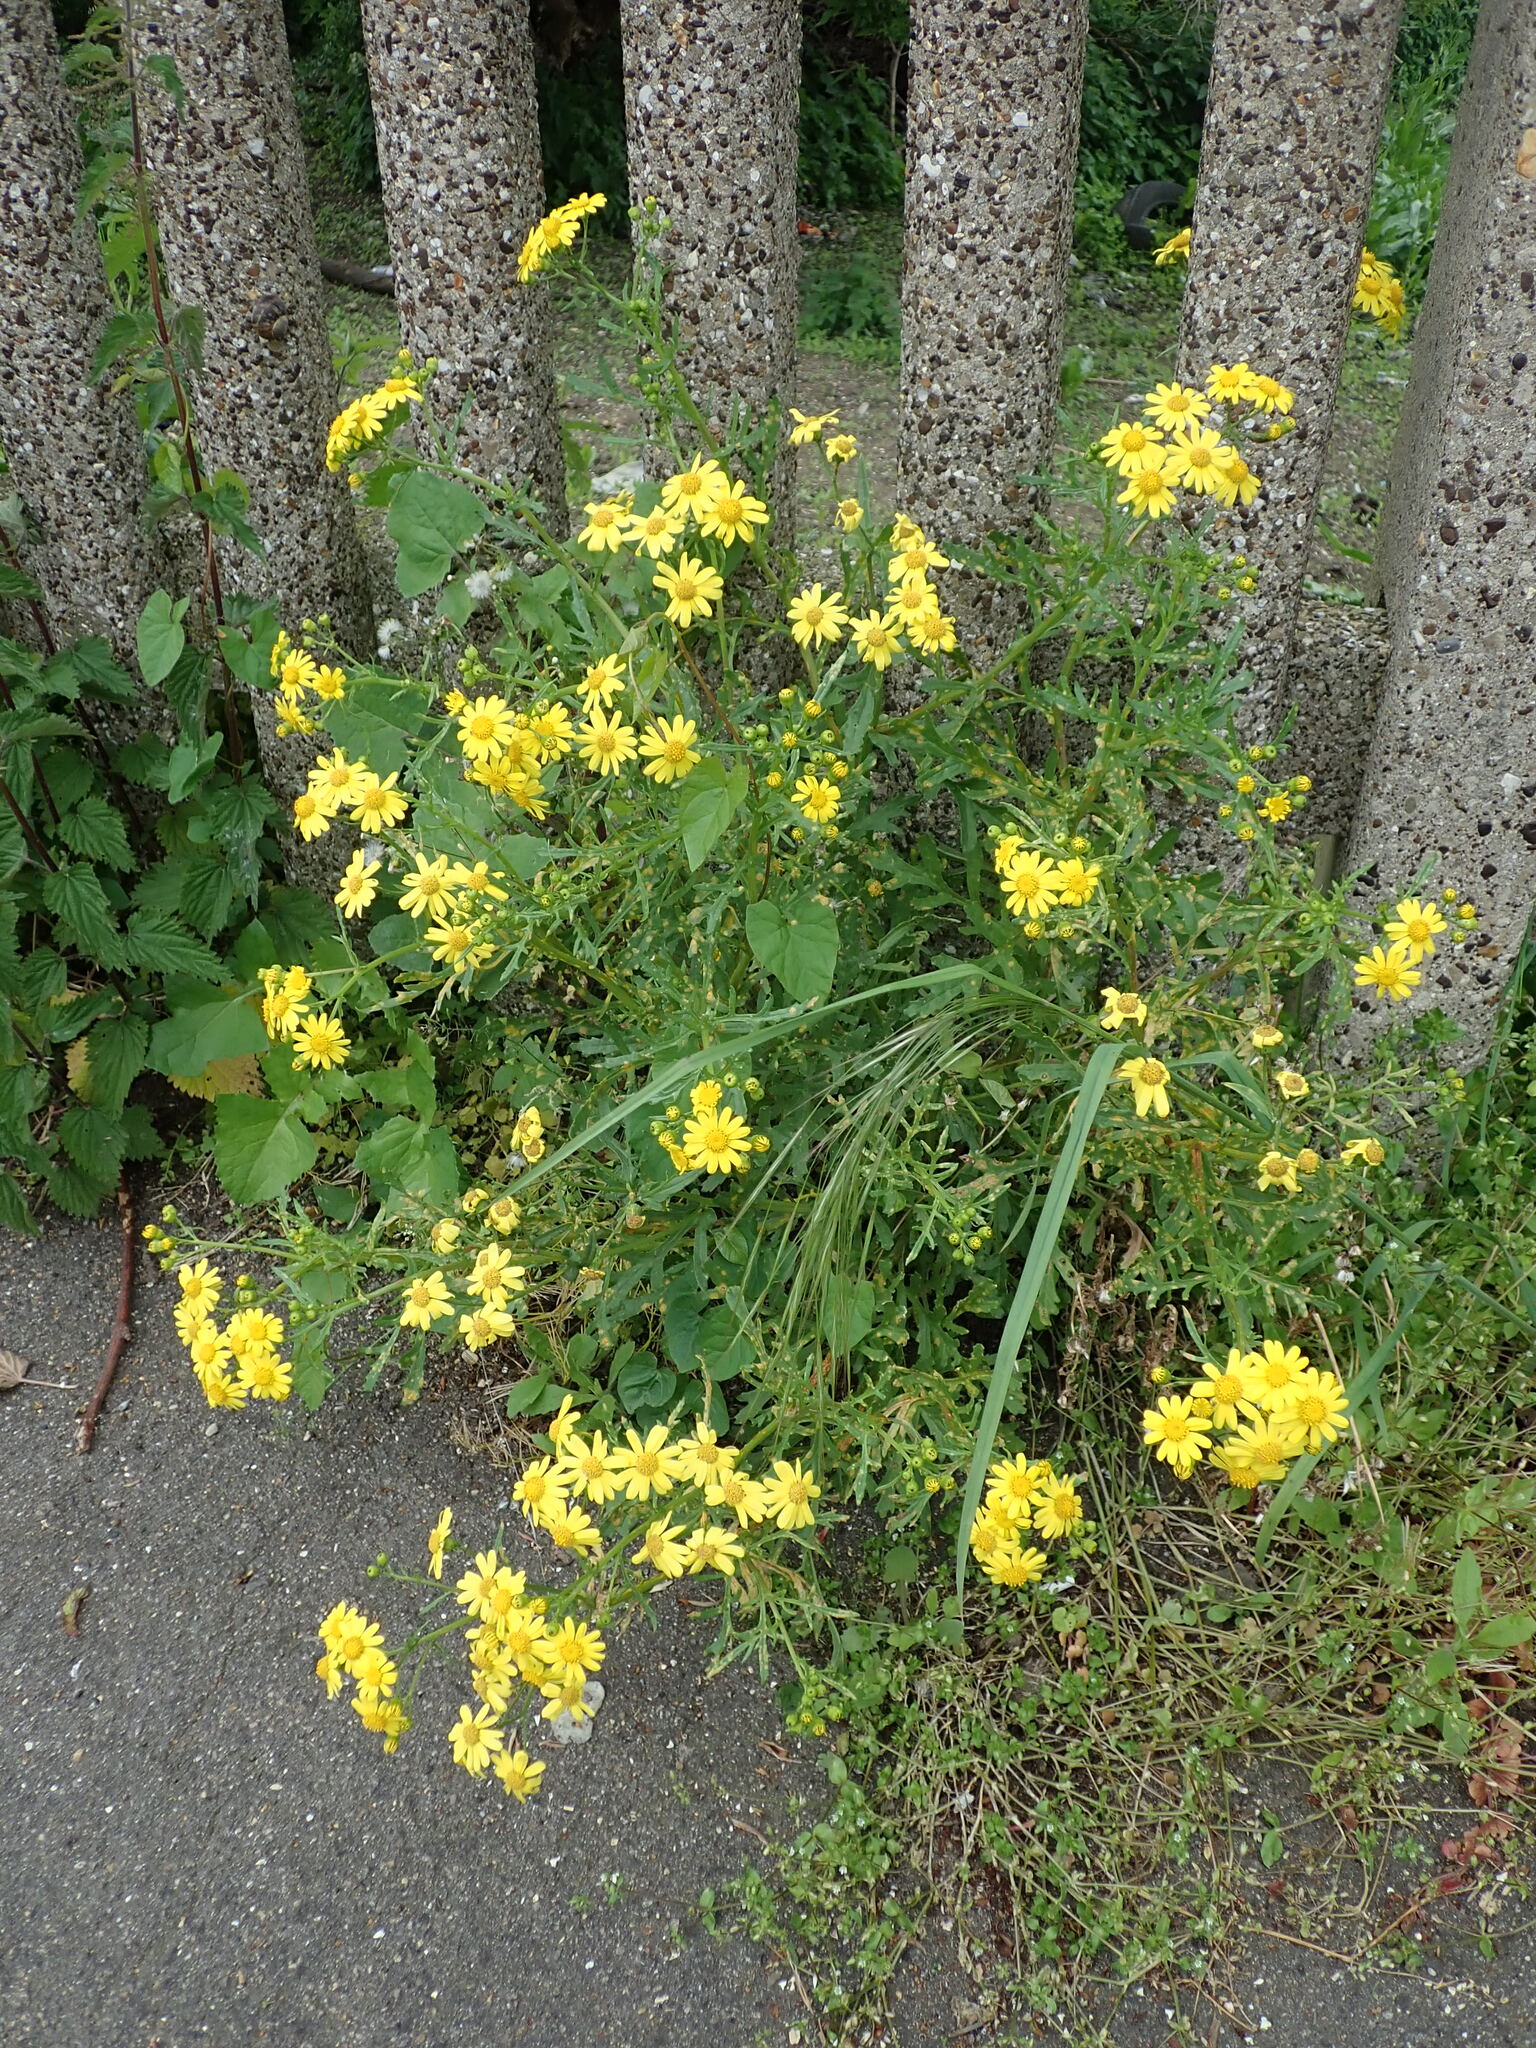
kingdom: Plantae
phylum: Tracheophyta
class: Magnoliopsida
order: Asterales
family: Asteraceae
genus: Senecio
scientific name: Senecio squalidus
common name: Oxford ragwort
